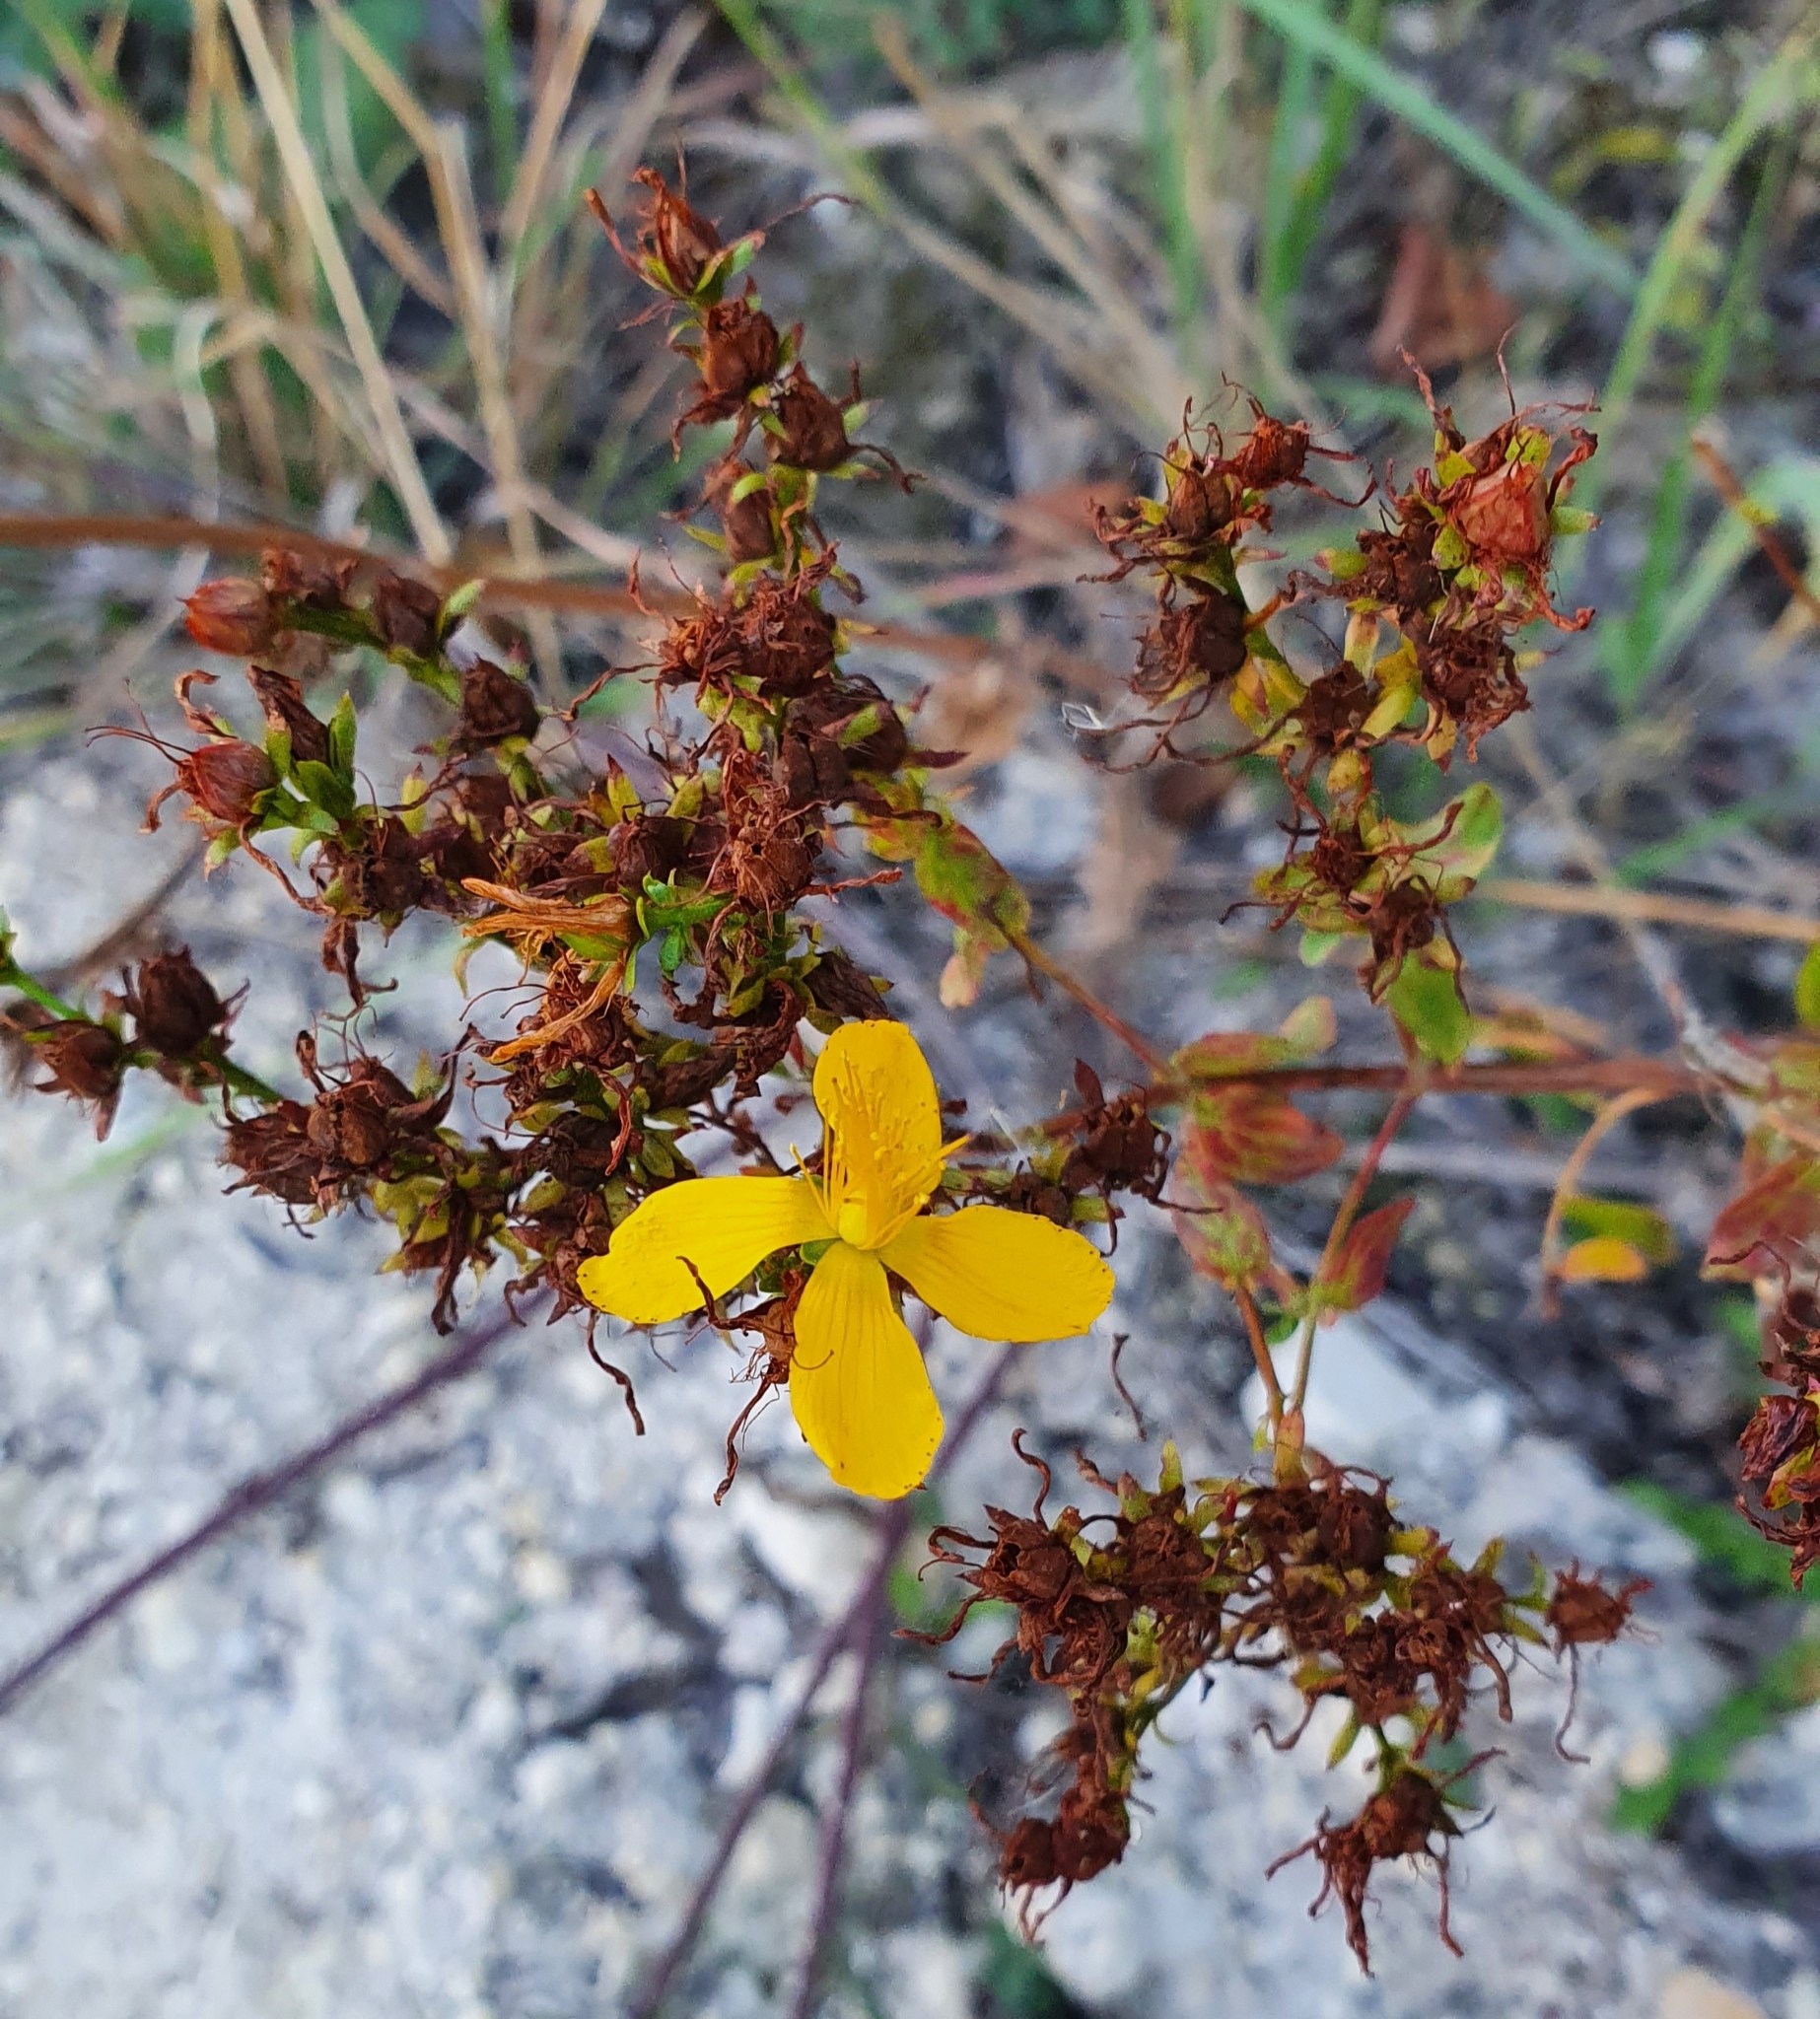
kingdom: Plantae
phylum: Tracheophyta
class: Magnoliopsida
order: Malpighiales
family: Hypericaceae
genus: Hypericum
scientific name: Hypericum perforatum
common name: Common st. johnswort
